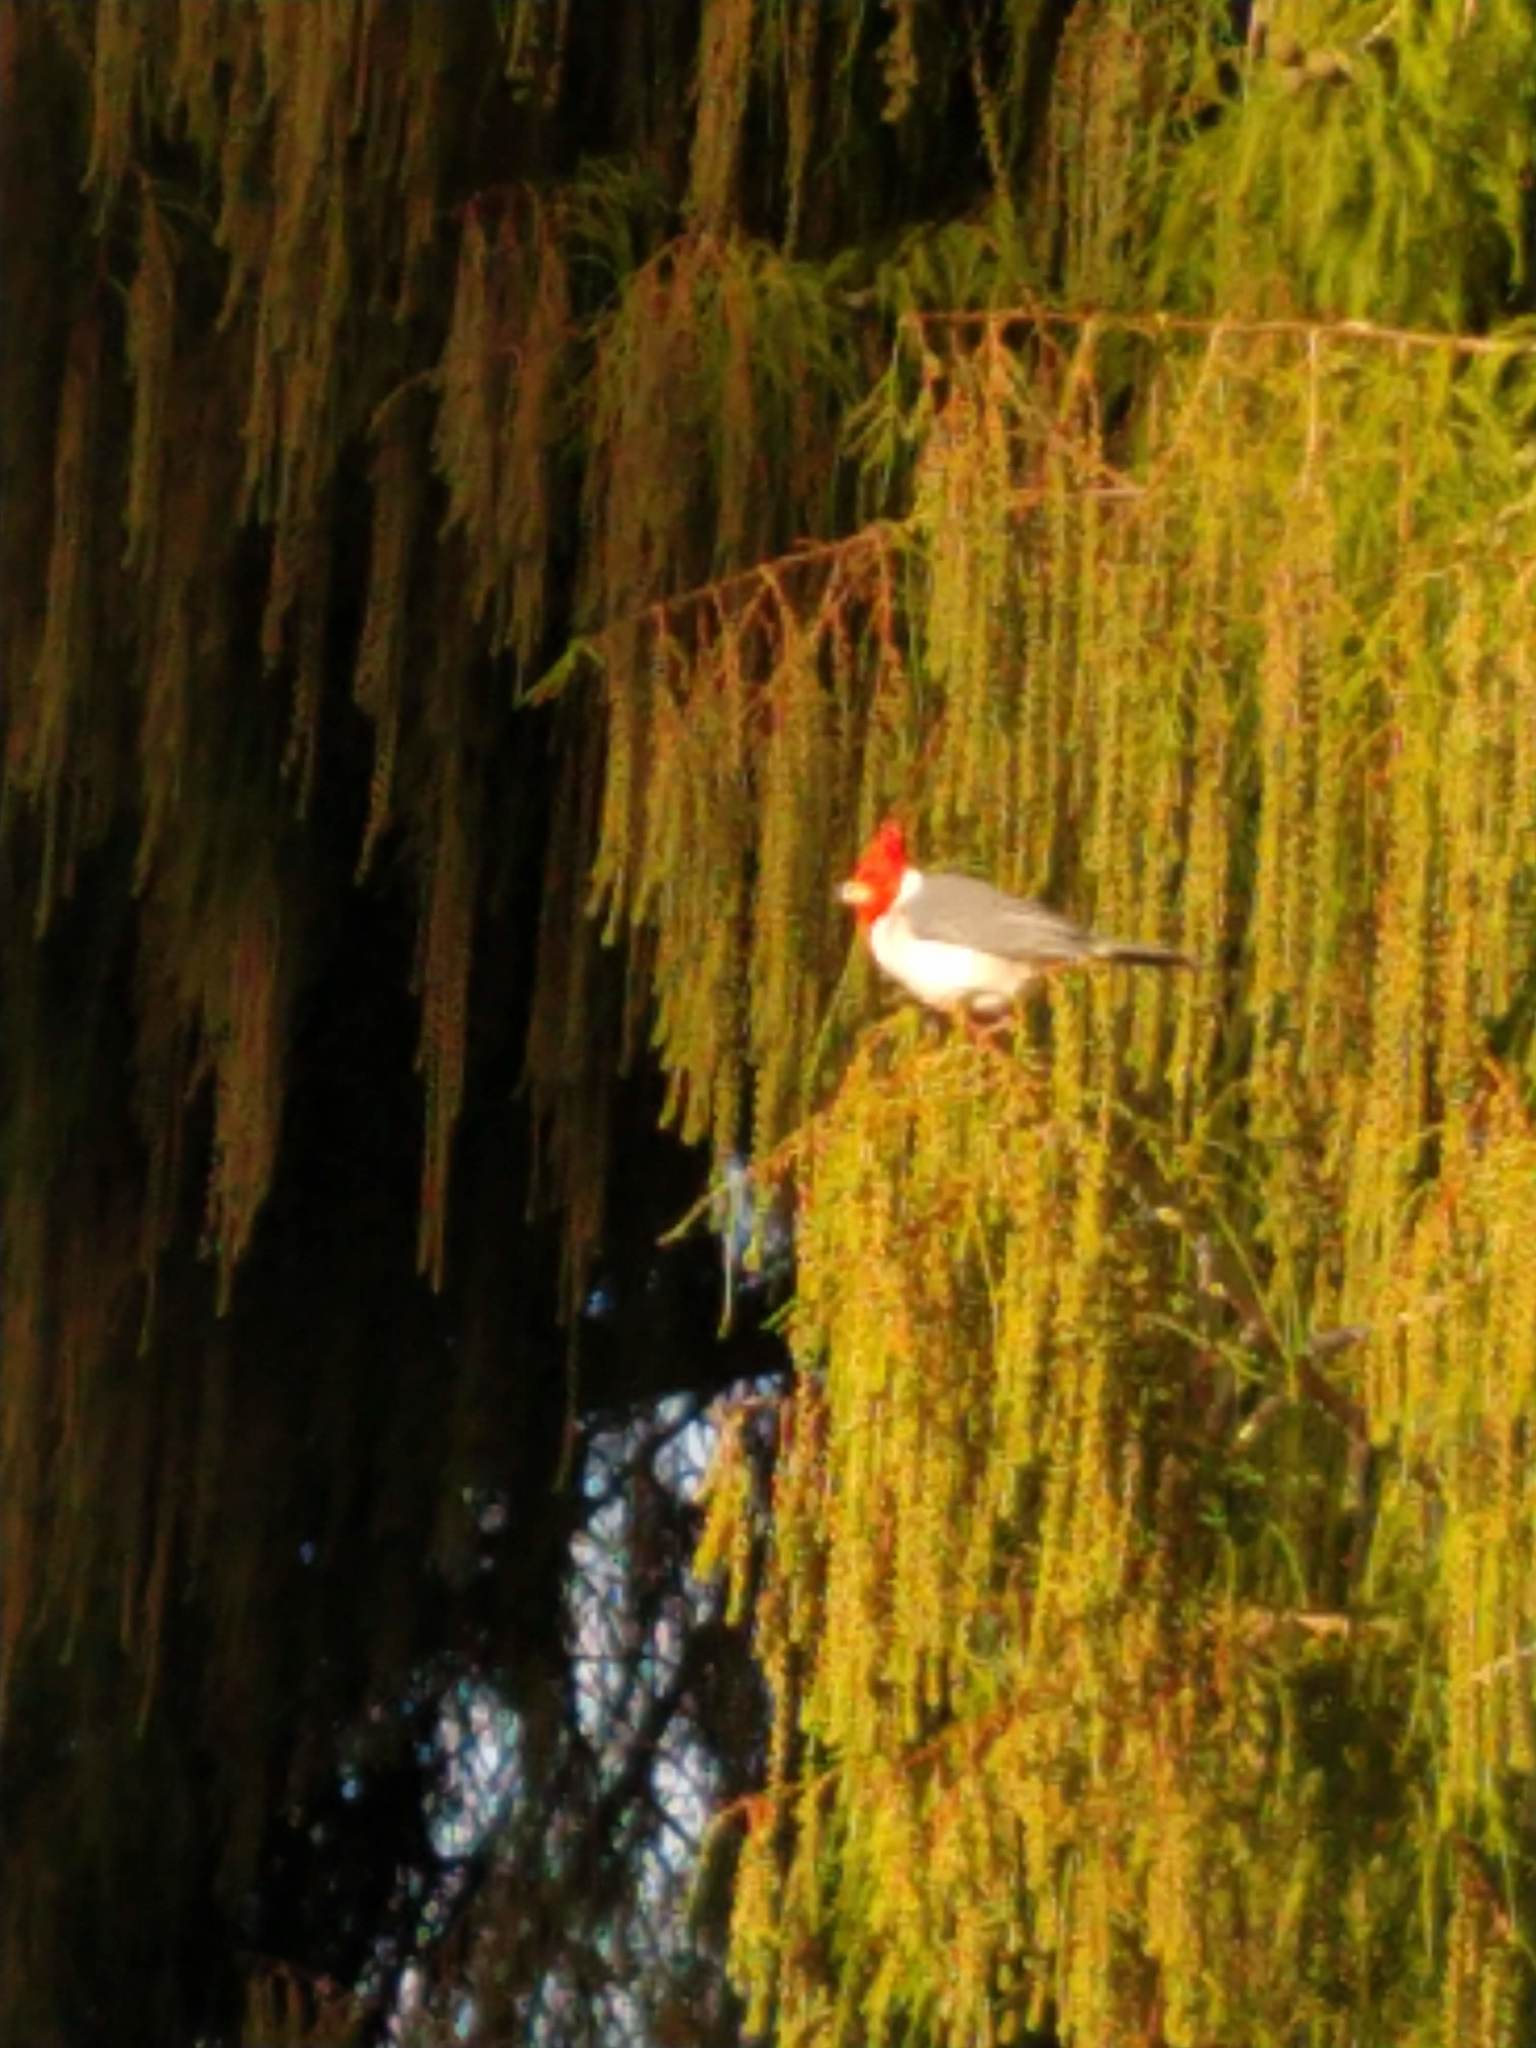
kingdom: Animalia
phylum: Chordata
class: Aves
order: Passeriformes
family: Thraupidae
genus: Paroaria
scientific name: Paroaria coronata
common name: Red-crested cardinal
